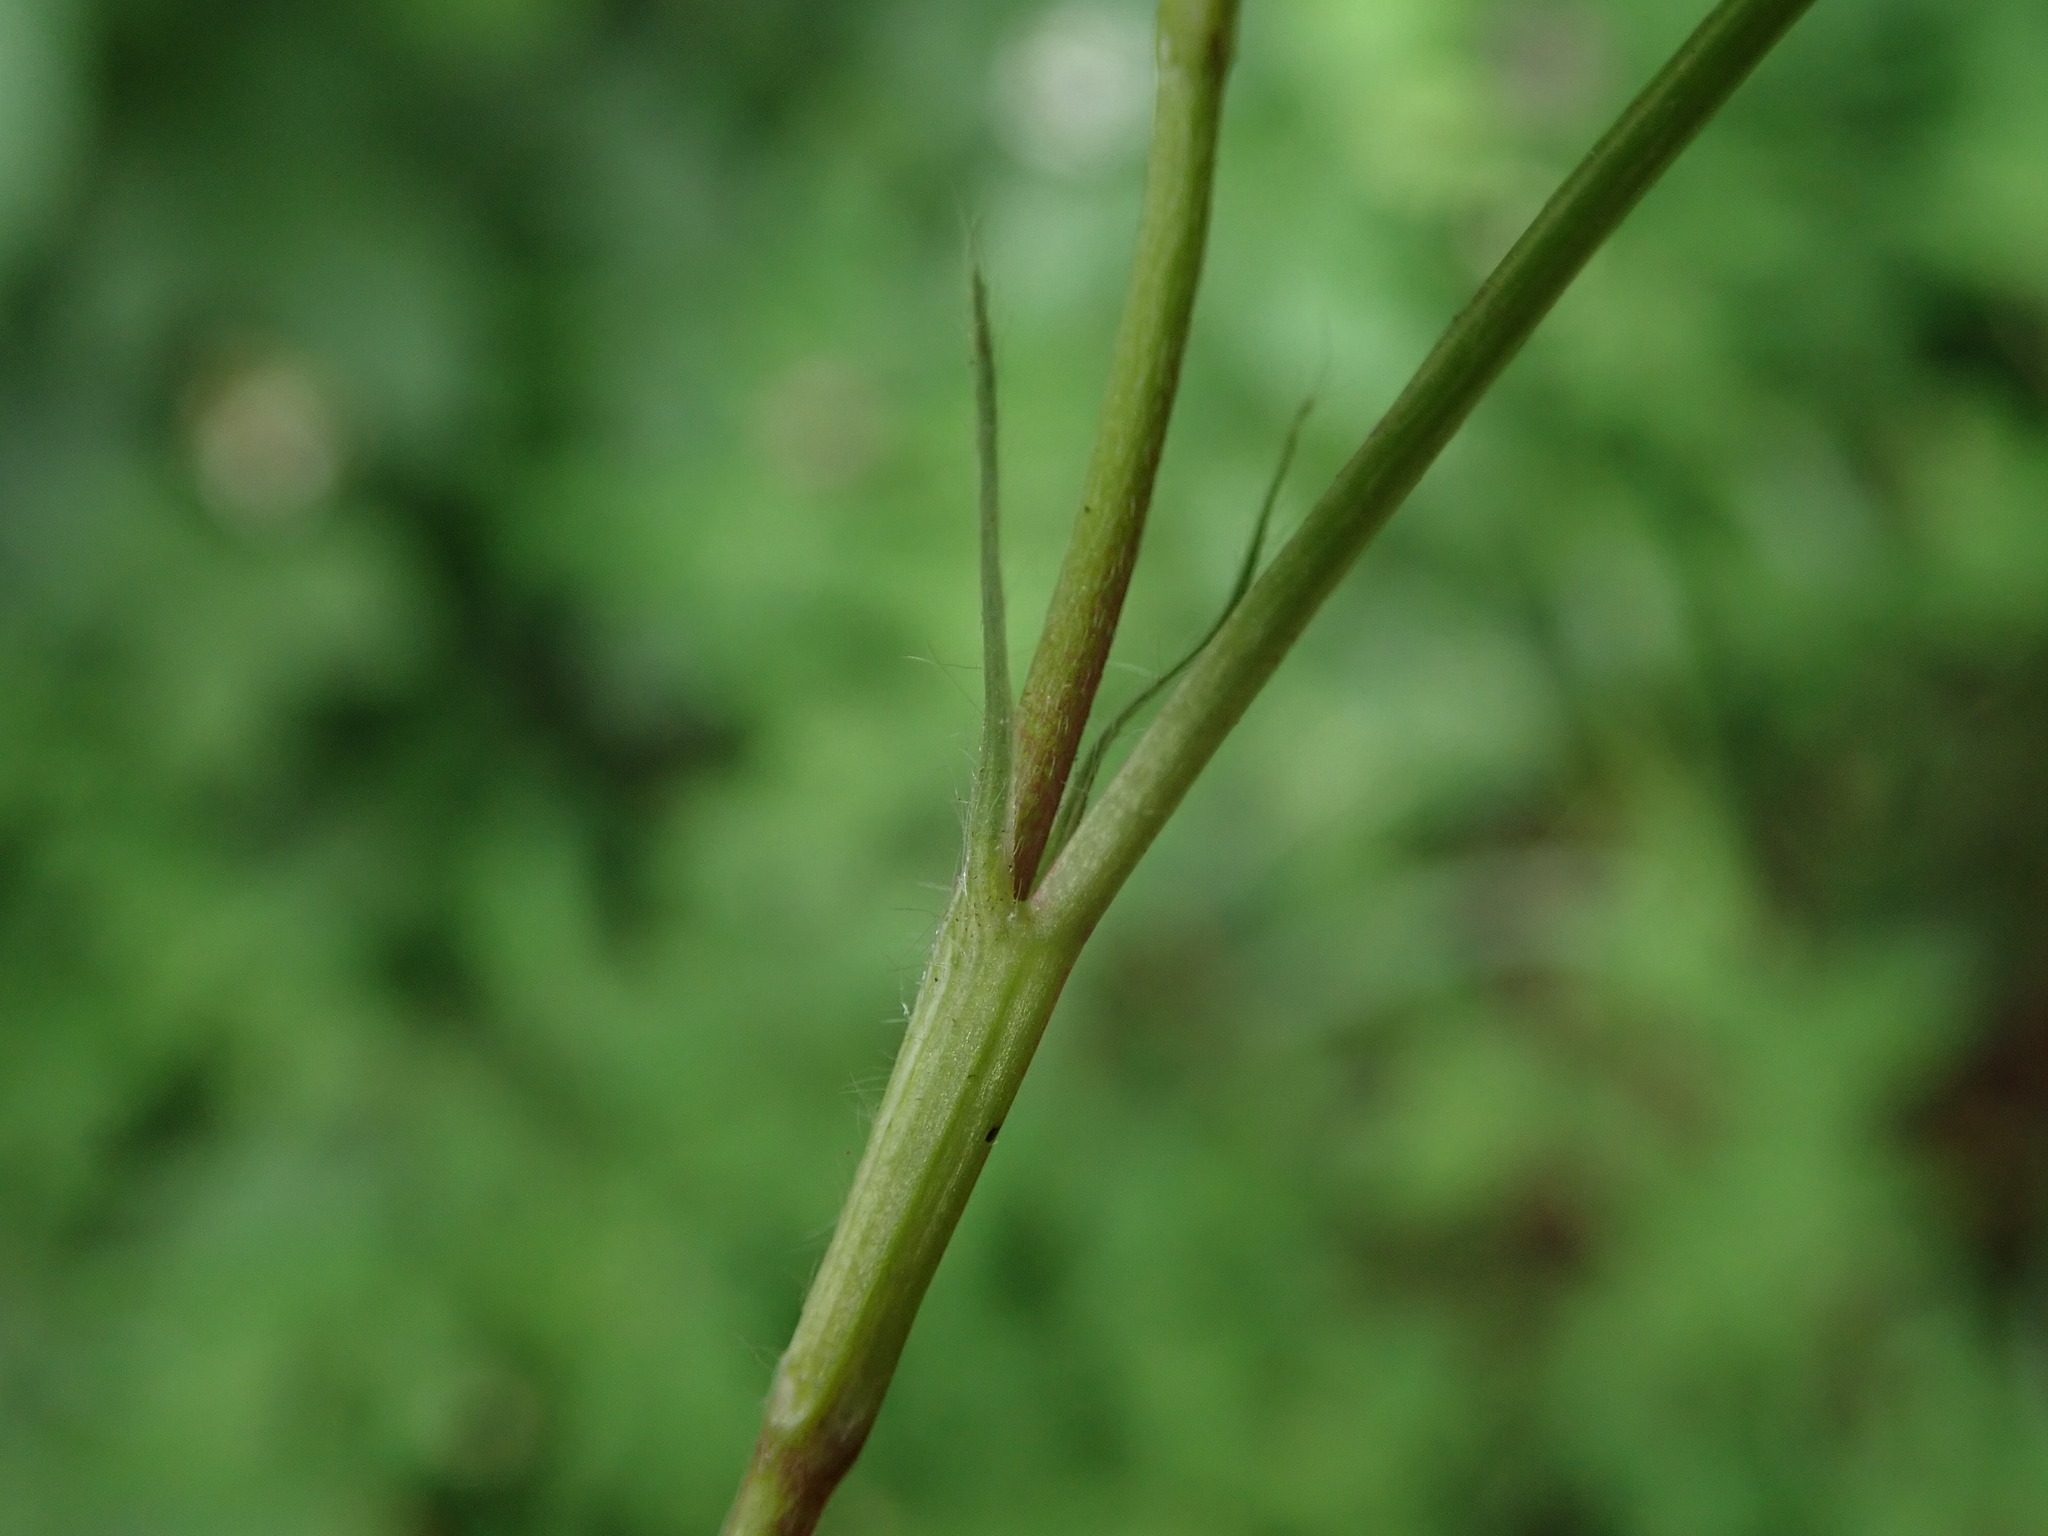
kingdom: Plantae
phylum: Tracheophyta
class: Magnoliopsida
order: Fabales
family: Fabaceae
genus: Trifolium
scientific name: Trifolium medium
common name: Zigzag clover
